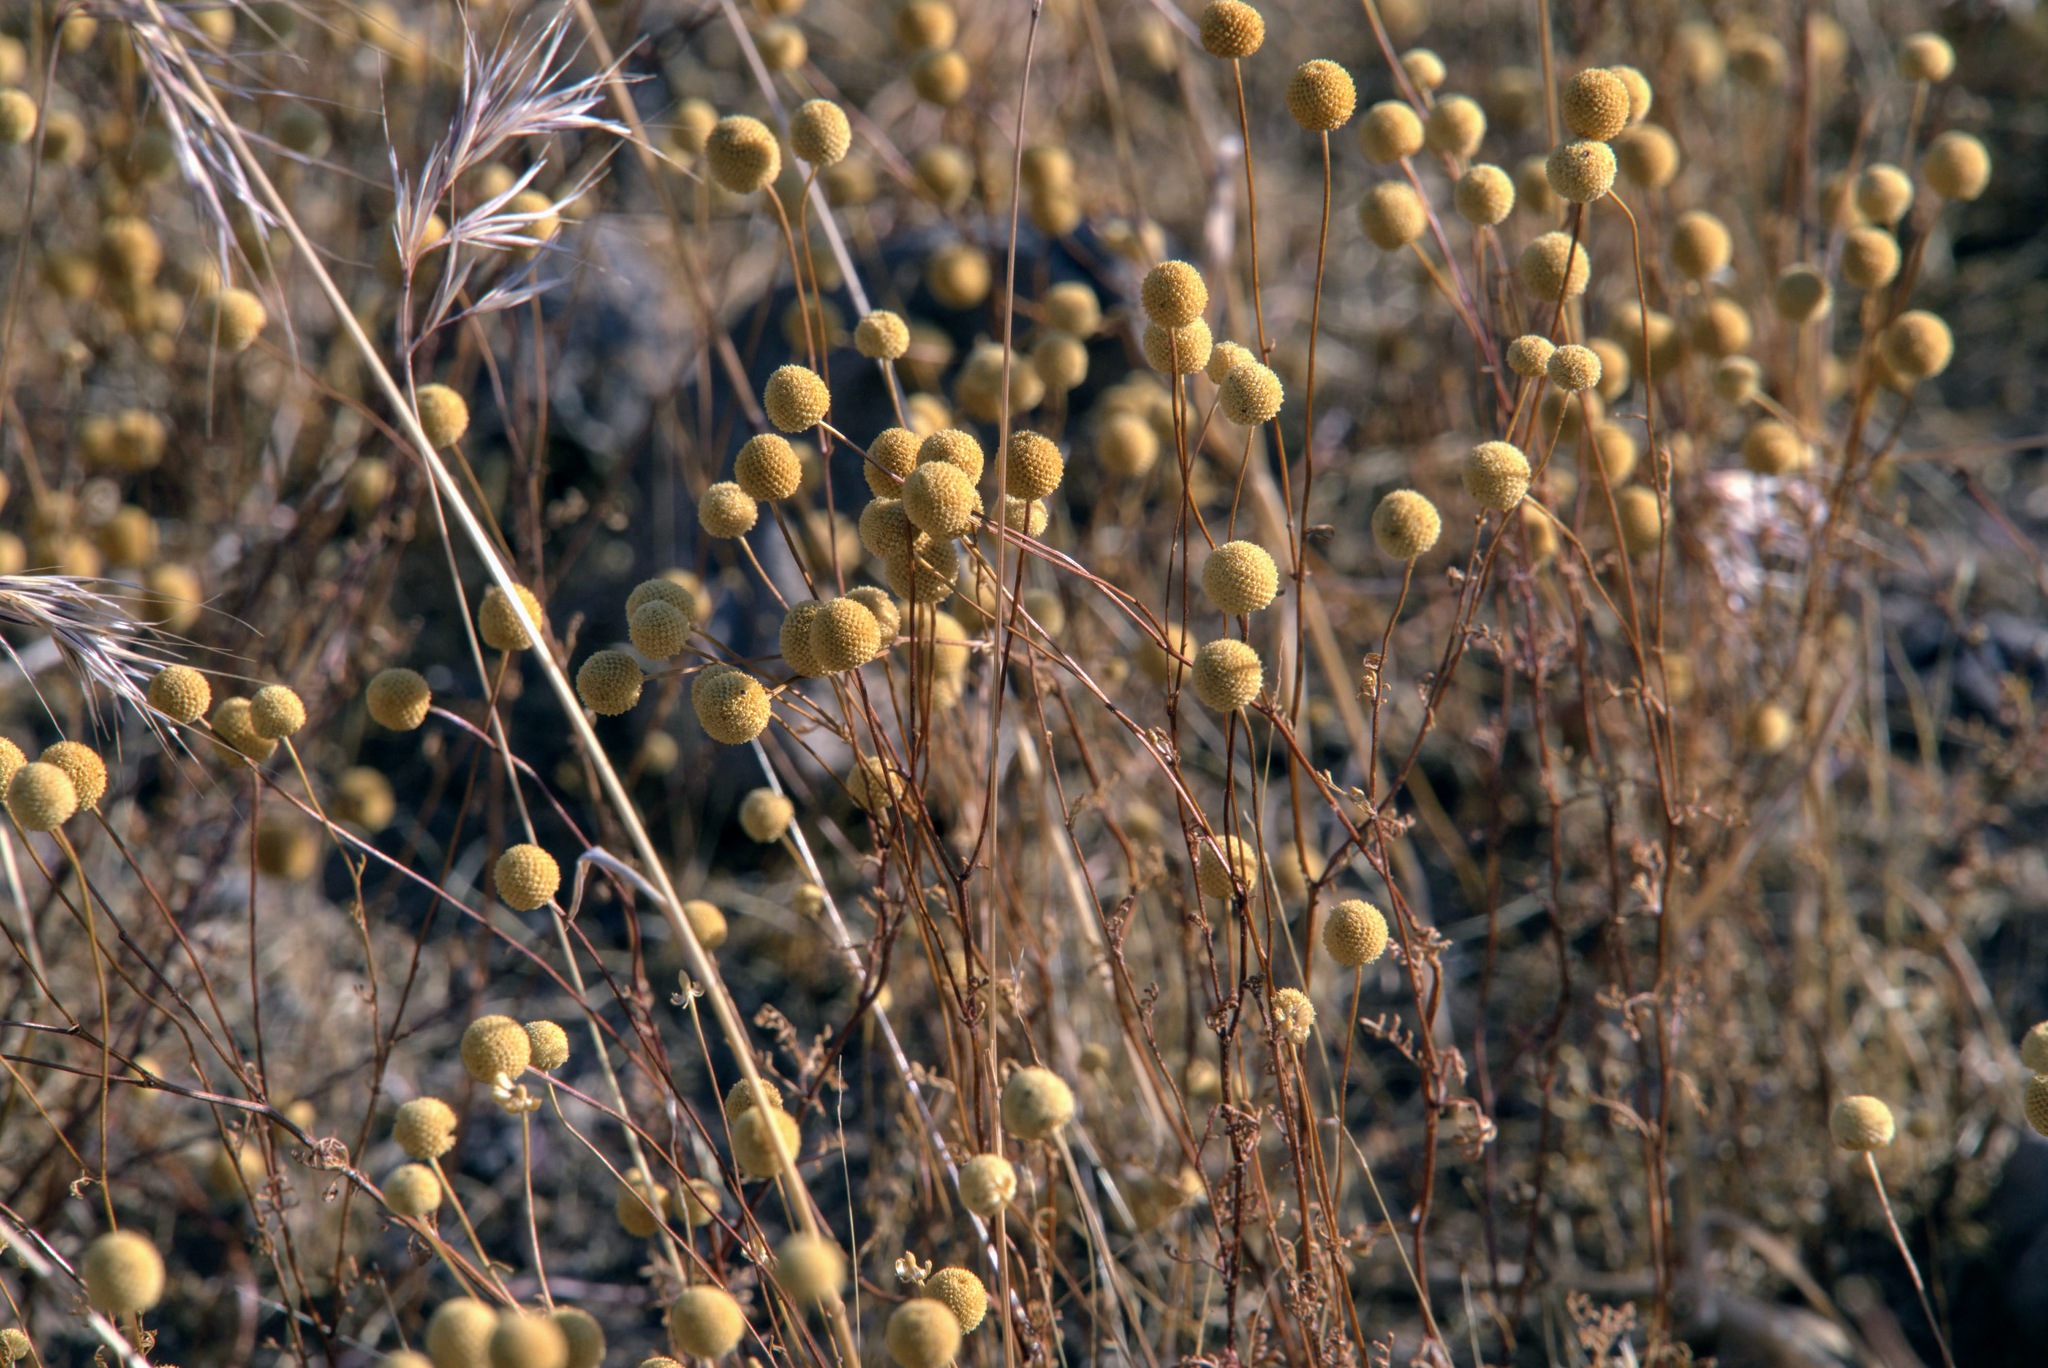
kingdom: Plantae
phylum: Tracheophyta
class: Magnoliopsida
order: Asterales
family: Asteraceae
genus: Oncosiphon
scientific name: Oncosiphon pilulifer
